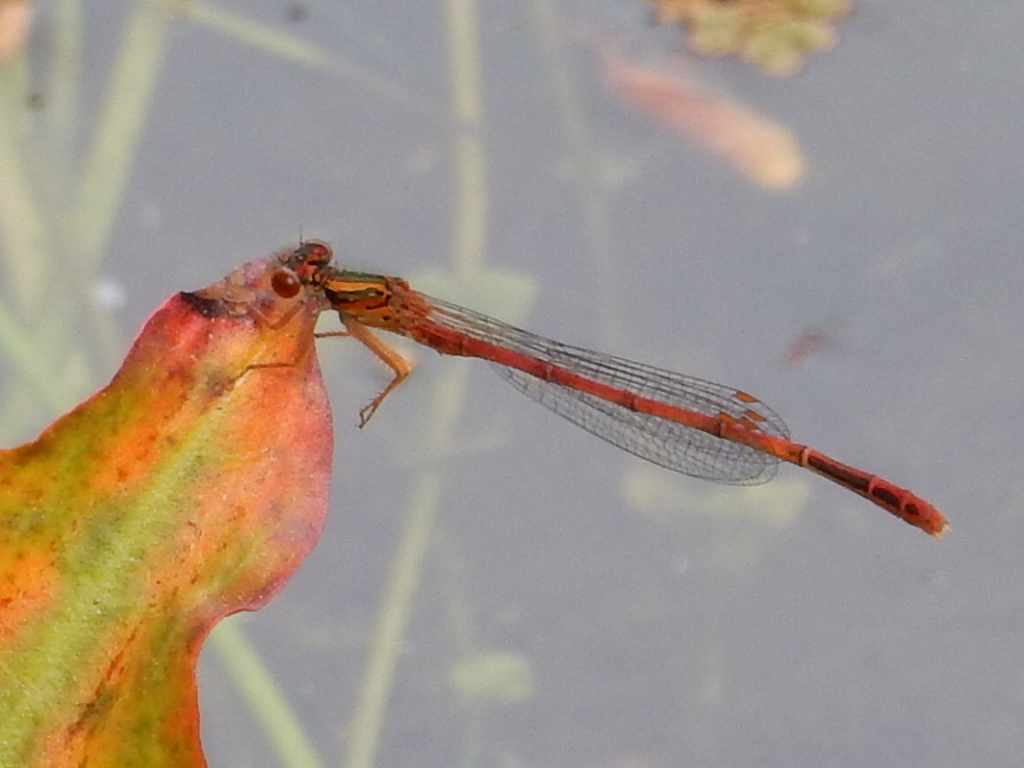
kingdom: Animalia
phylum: Arthropoda
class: Insecta
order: Odonata
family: Coenagrionidae
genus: Xanthocnemis
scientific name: Xanthocnemis zealandica
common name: Common redcoat damselfly
